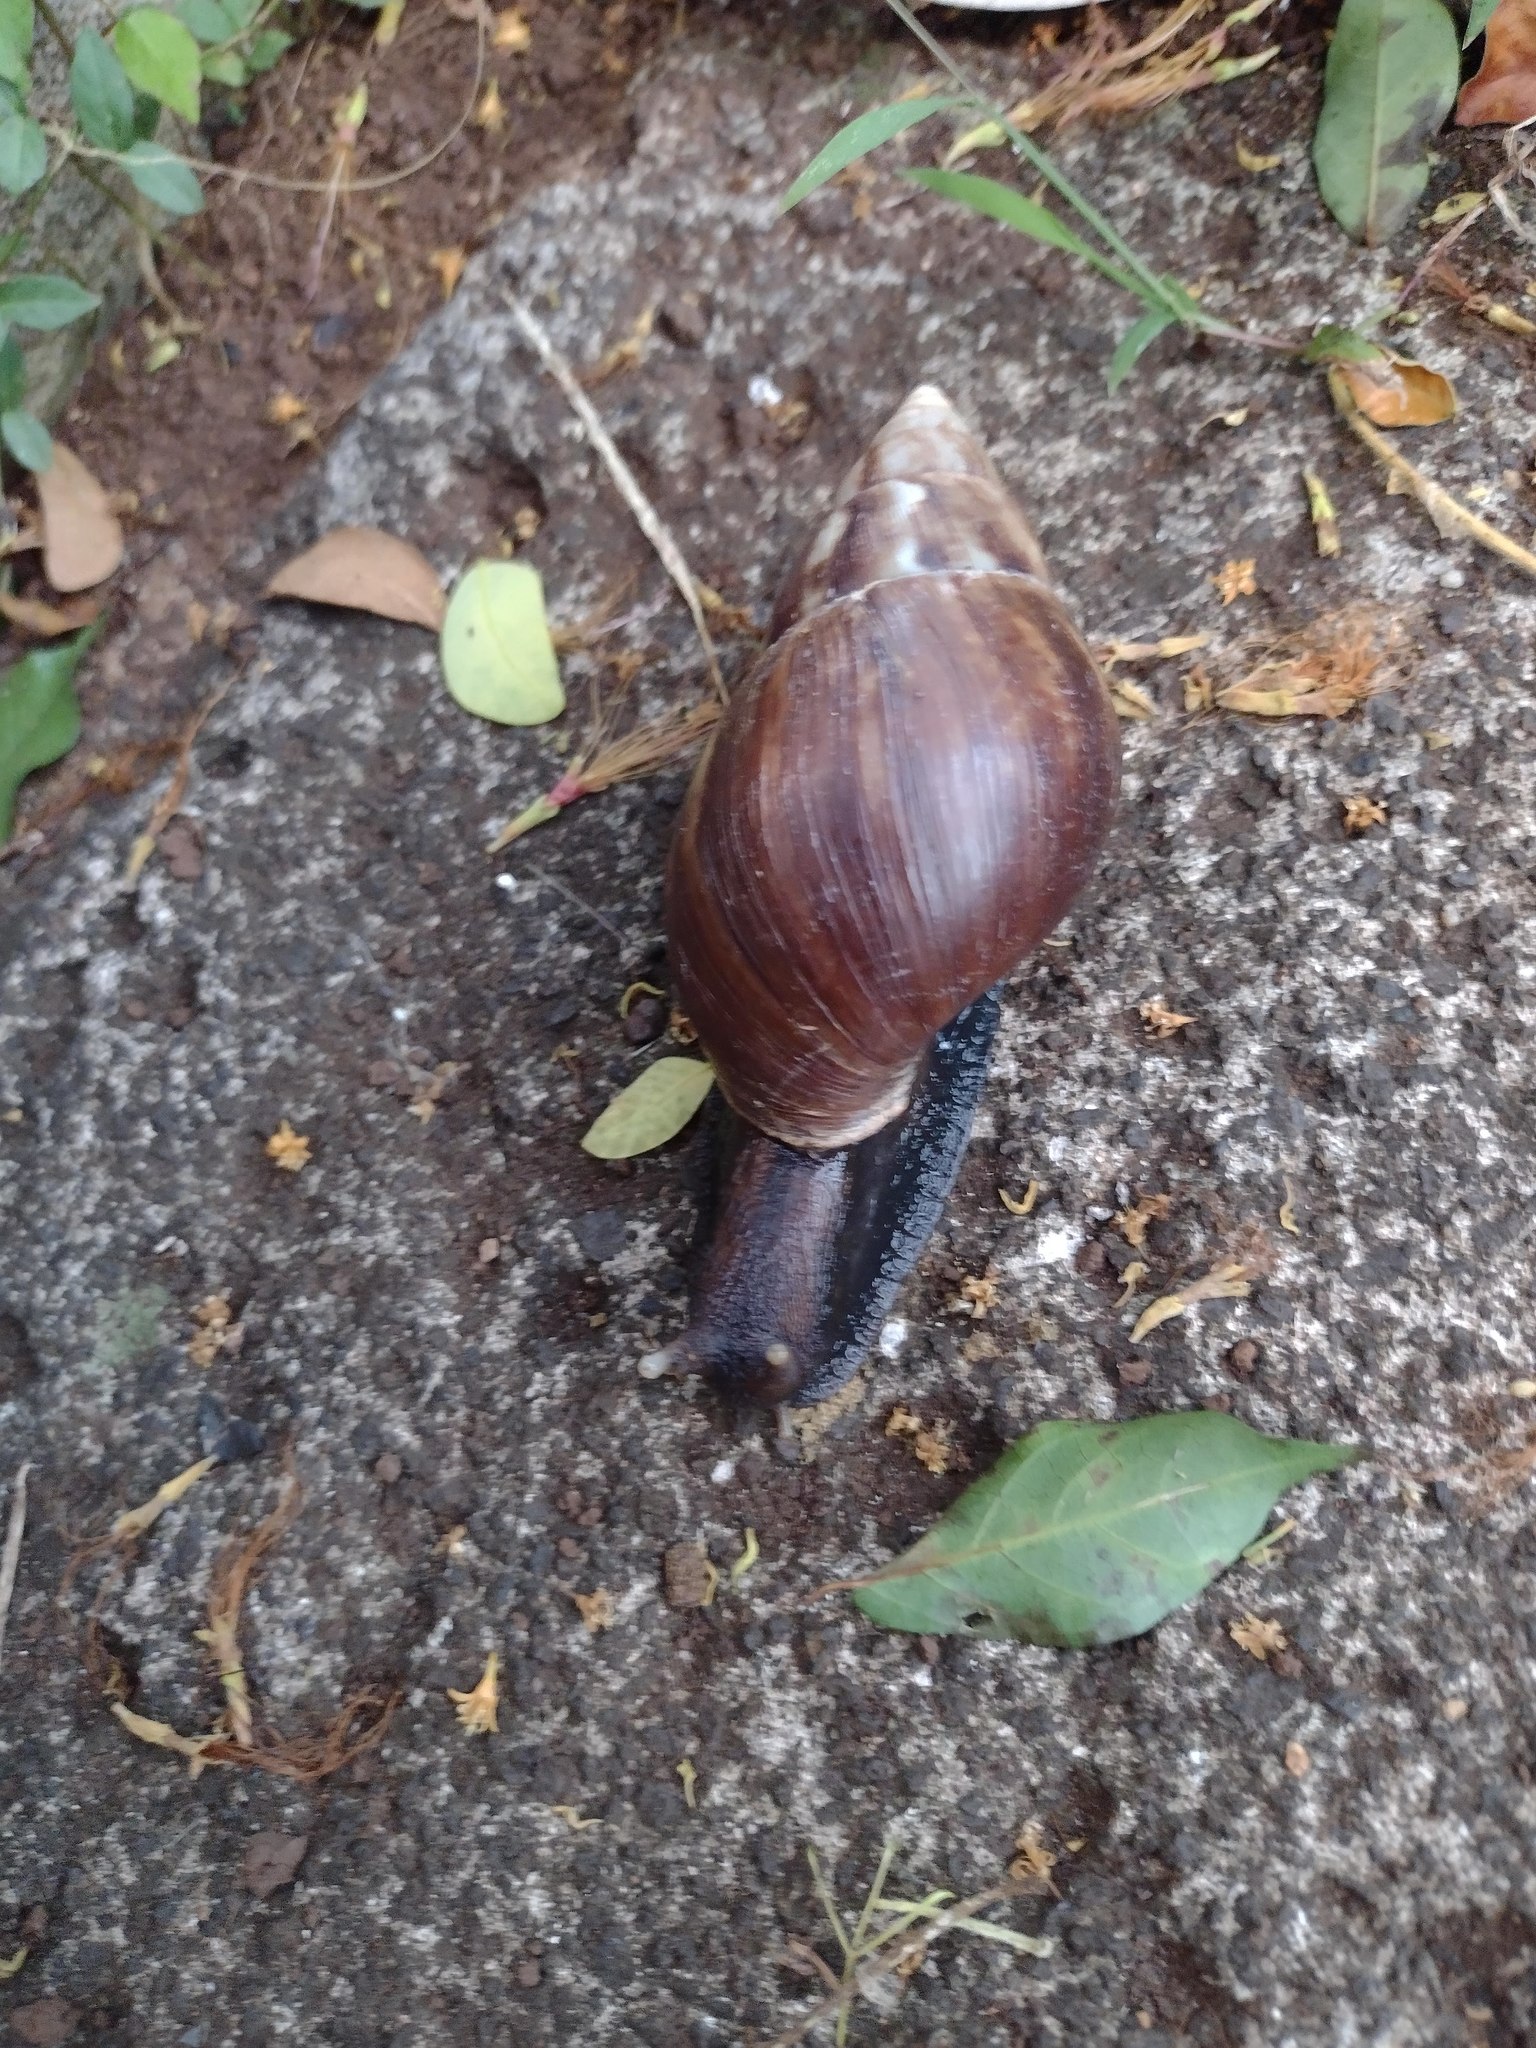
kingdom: Animalia
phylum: Mollusca
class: Gastropoda
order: Stylommatophora
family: Achatinidae
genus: Lissachatina
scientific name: Lissachatina fulica
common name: Giant african snail
